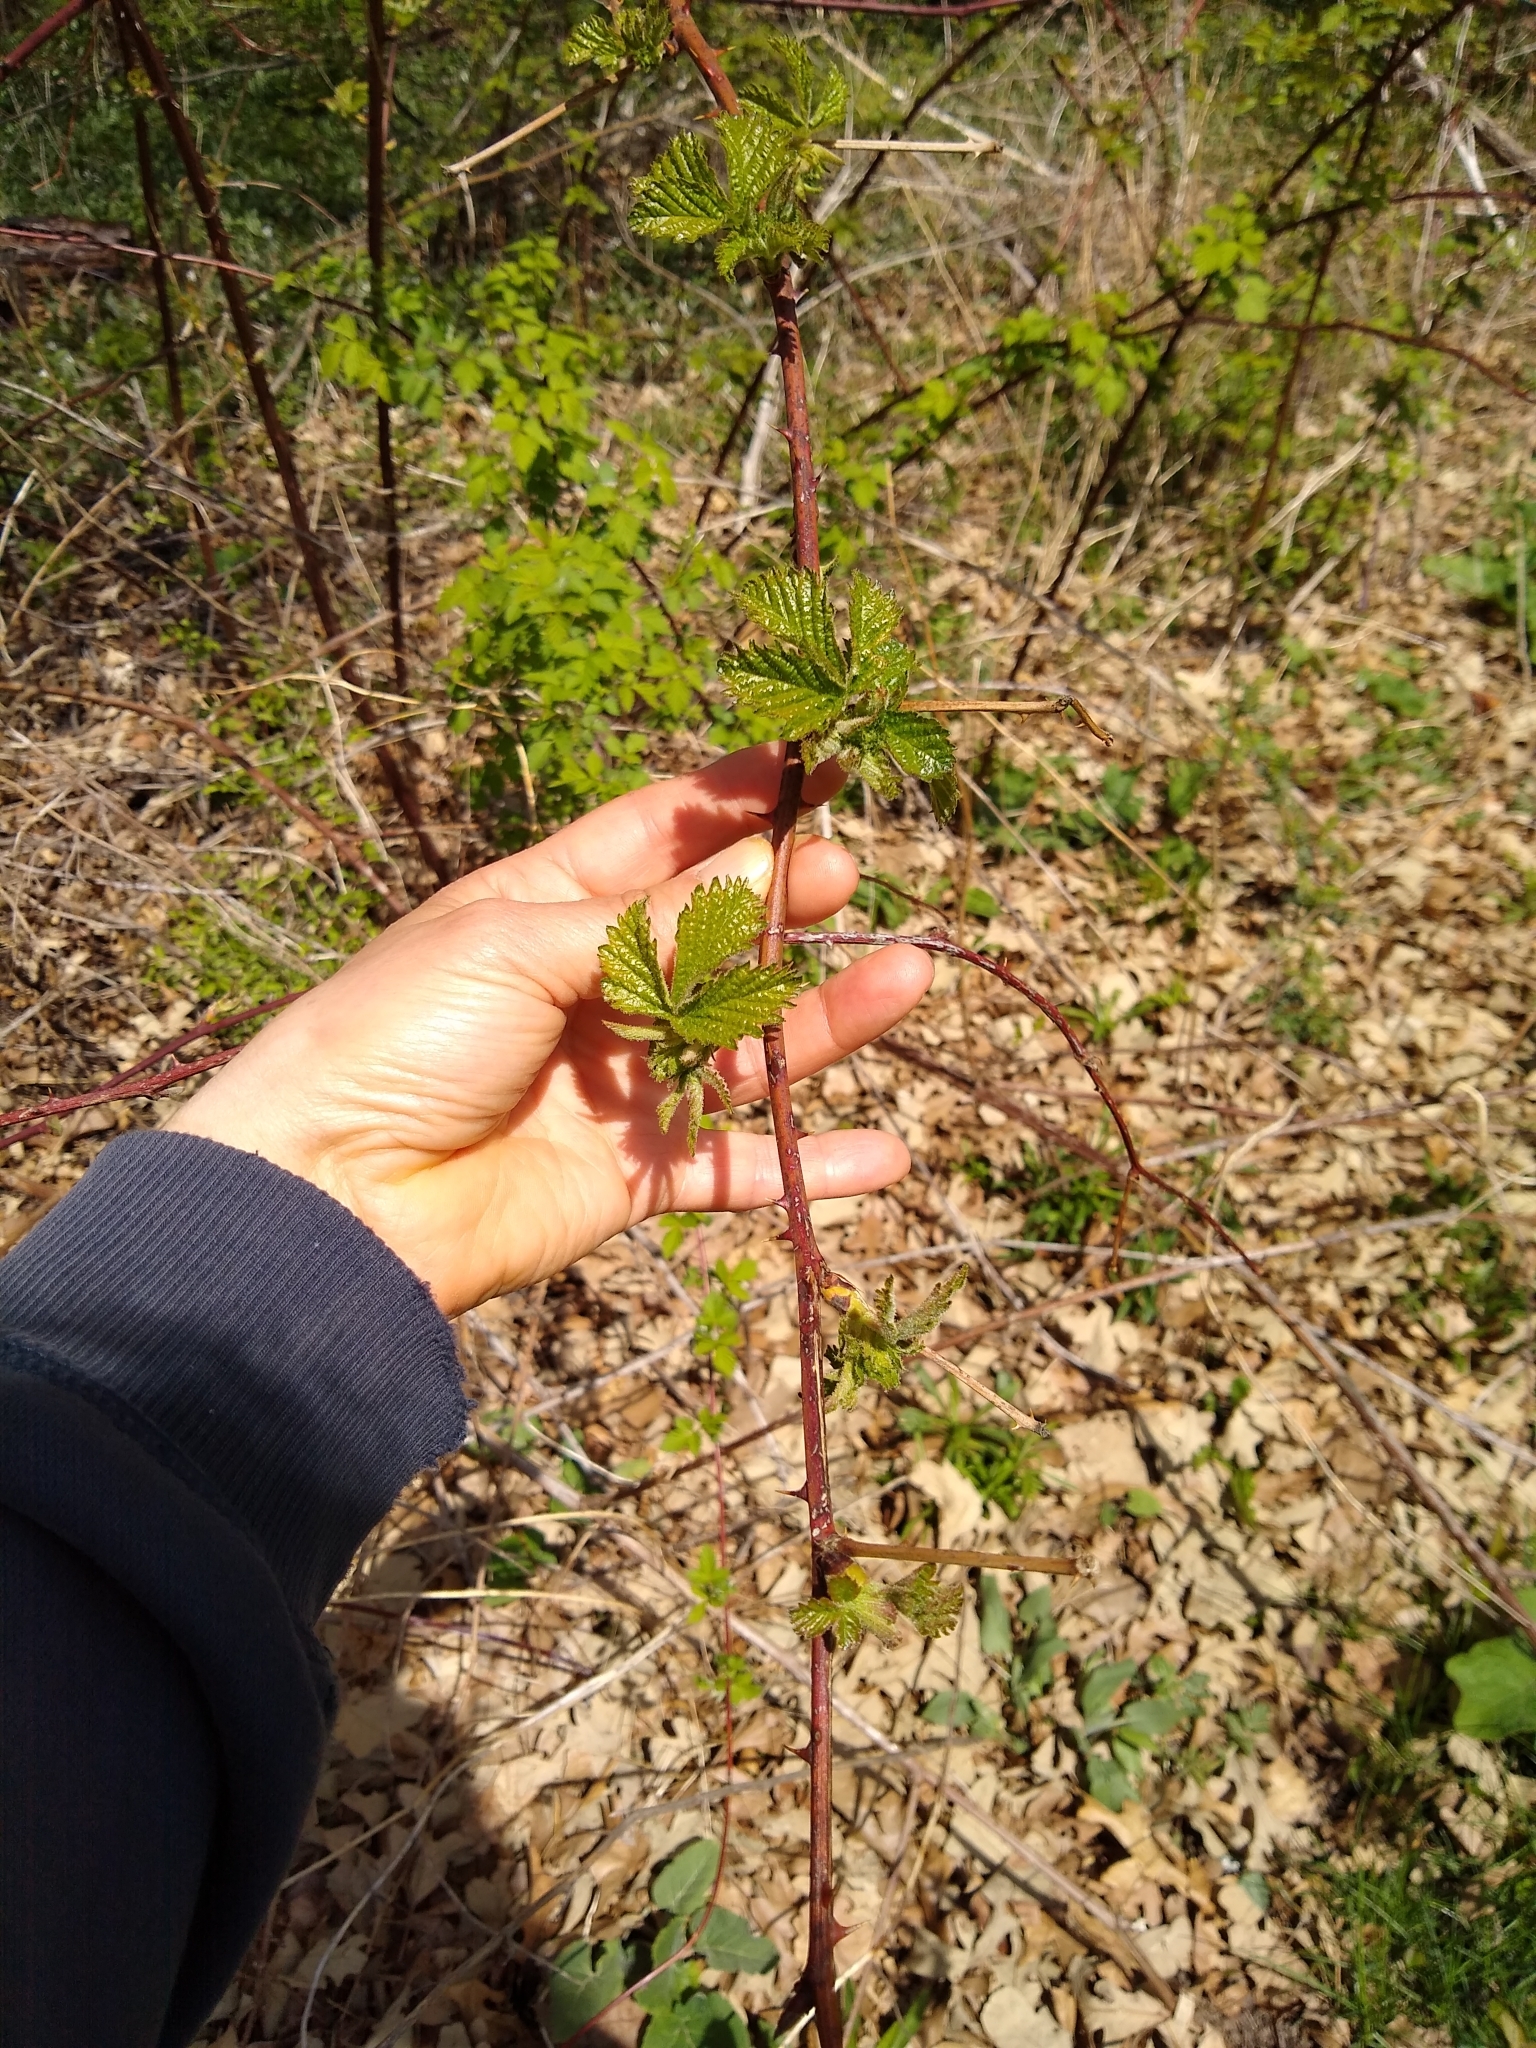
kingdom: Plantae
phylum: Tracheophyta
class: Magnoliopsida
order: Rosales
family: Rosaceae
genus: Rubus
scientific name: Rubus allegheniensis
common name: Allegheny blackberry
